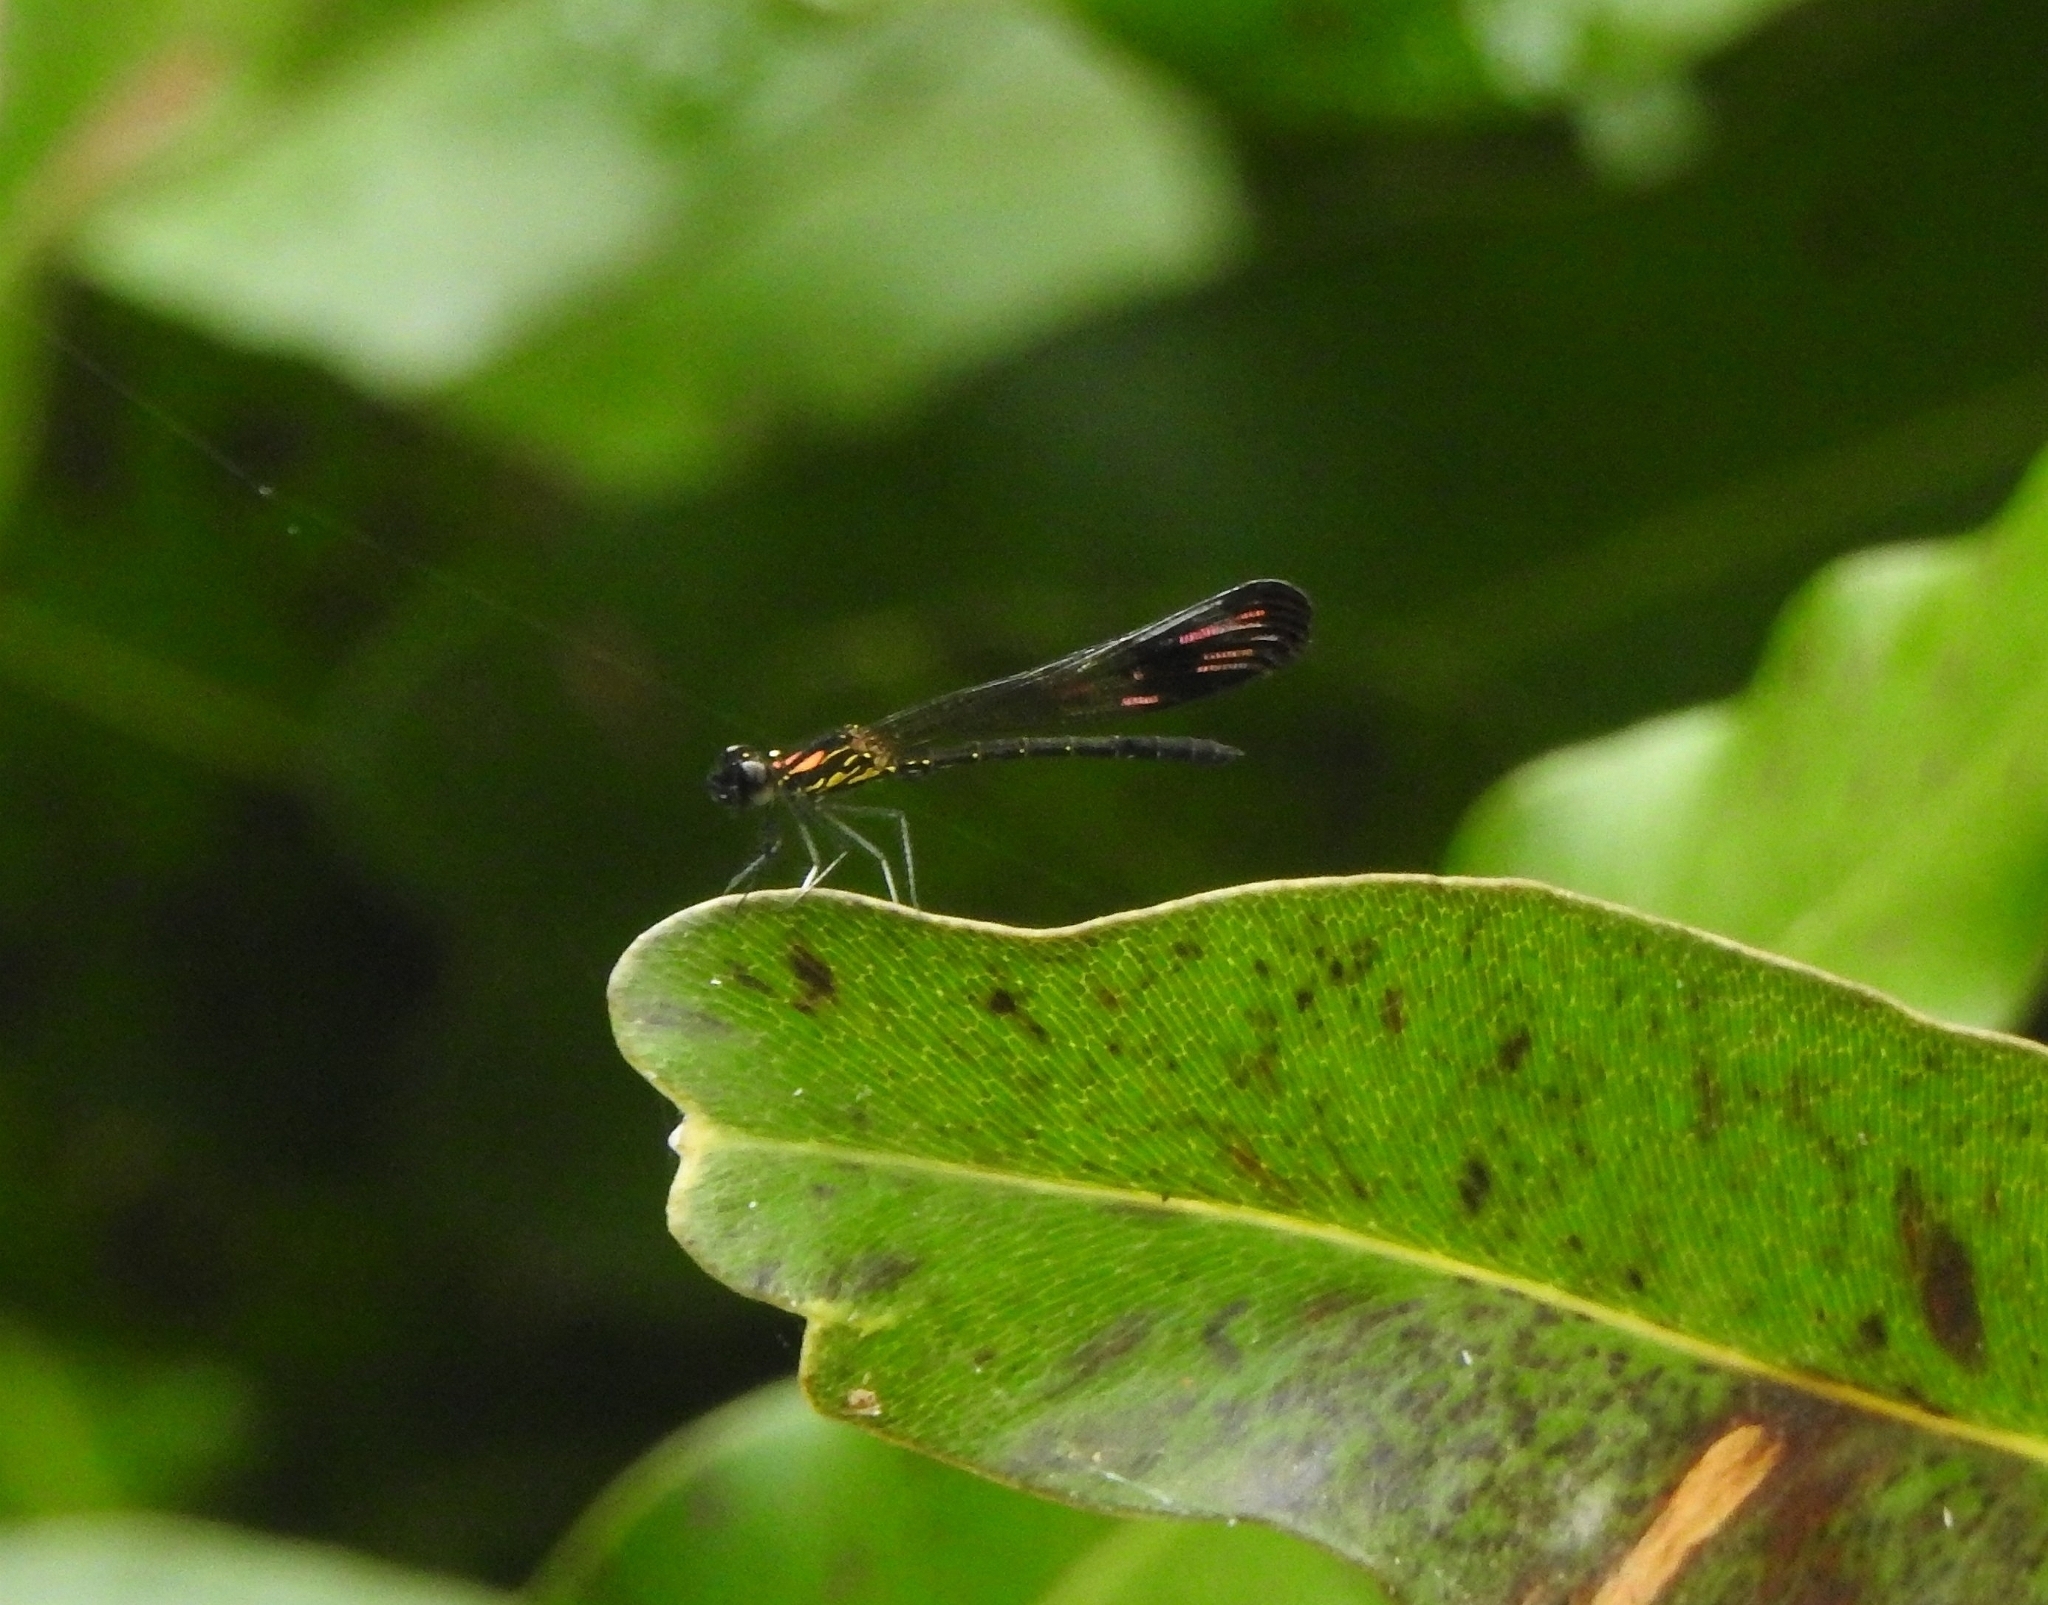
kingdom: Animalia
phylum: Arthropoda
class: Insecta
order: Odonata
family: Chlorocyphidae
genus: Heliocypha
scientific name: Heliocypha bisignata
